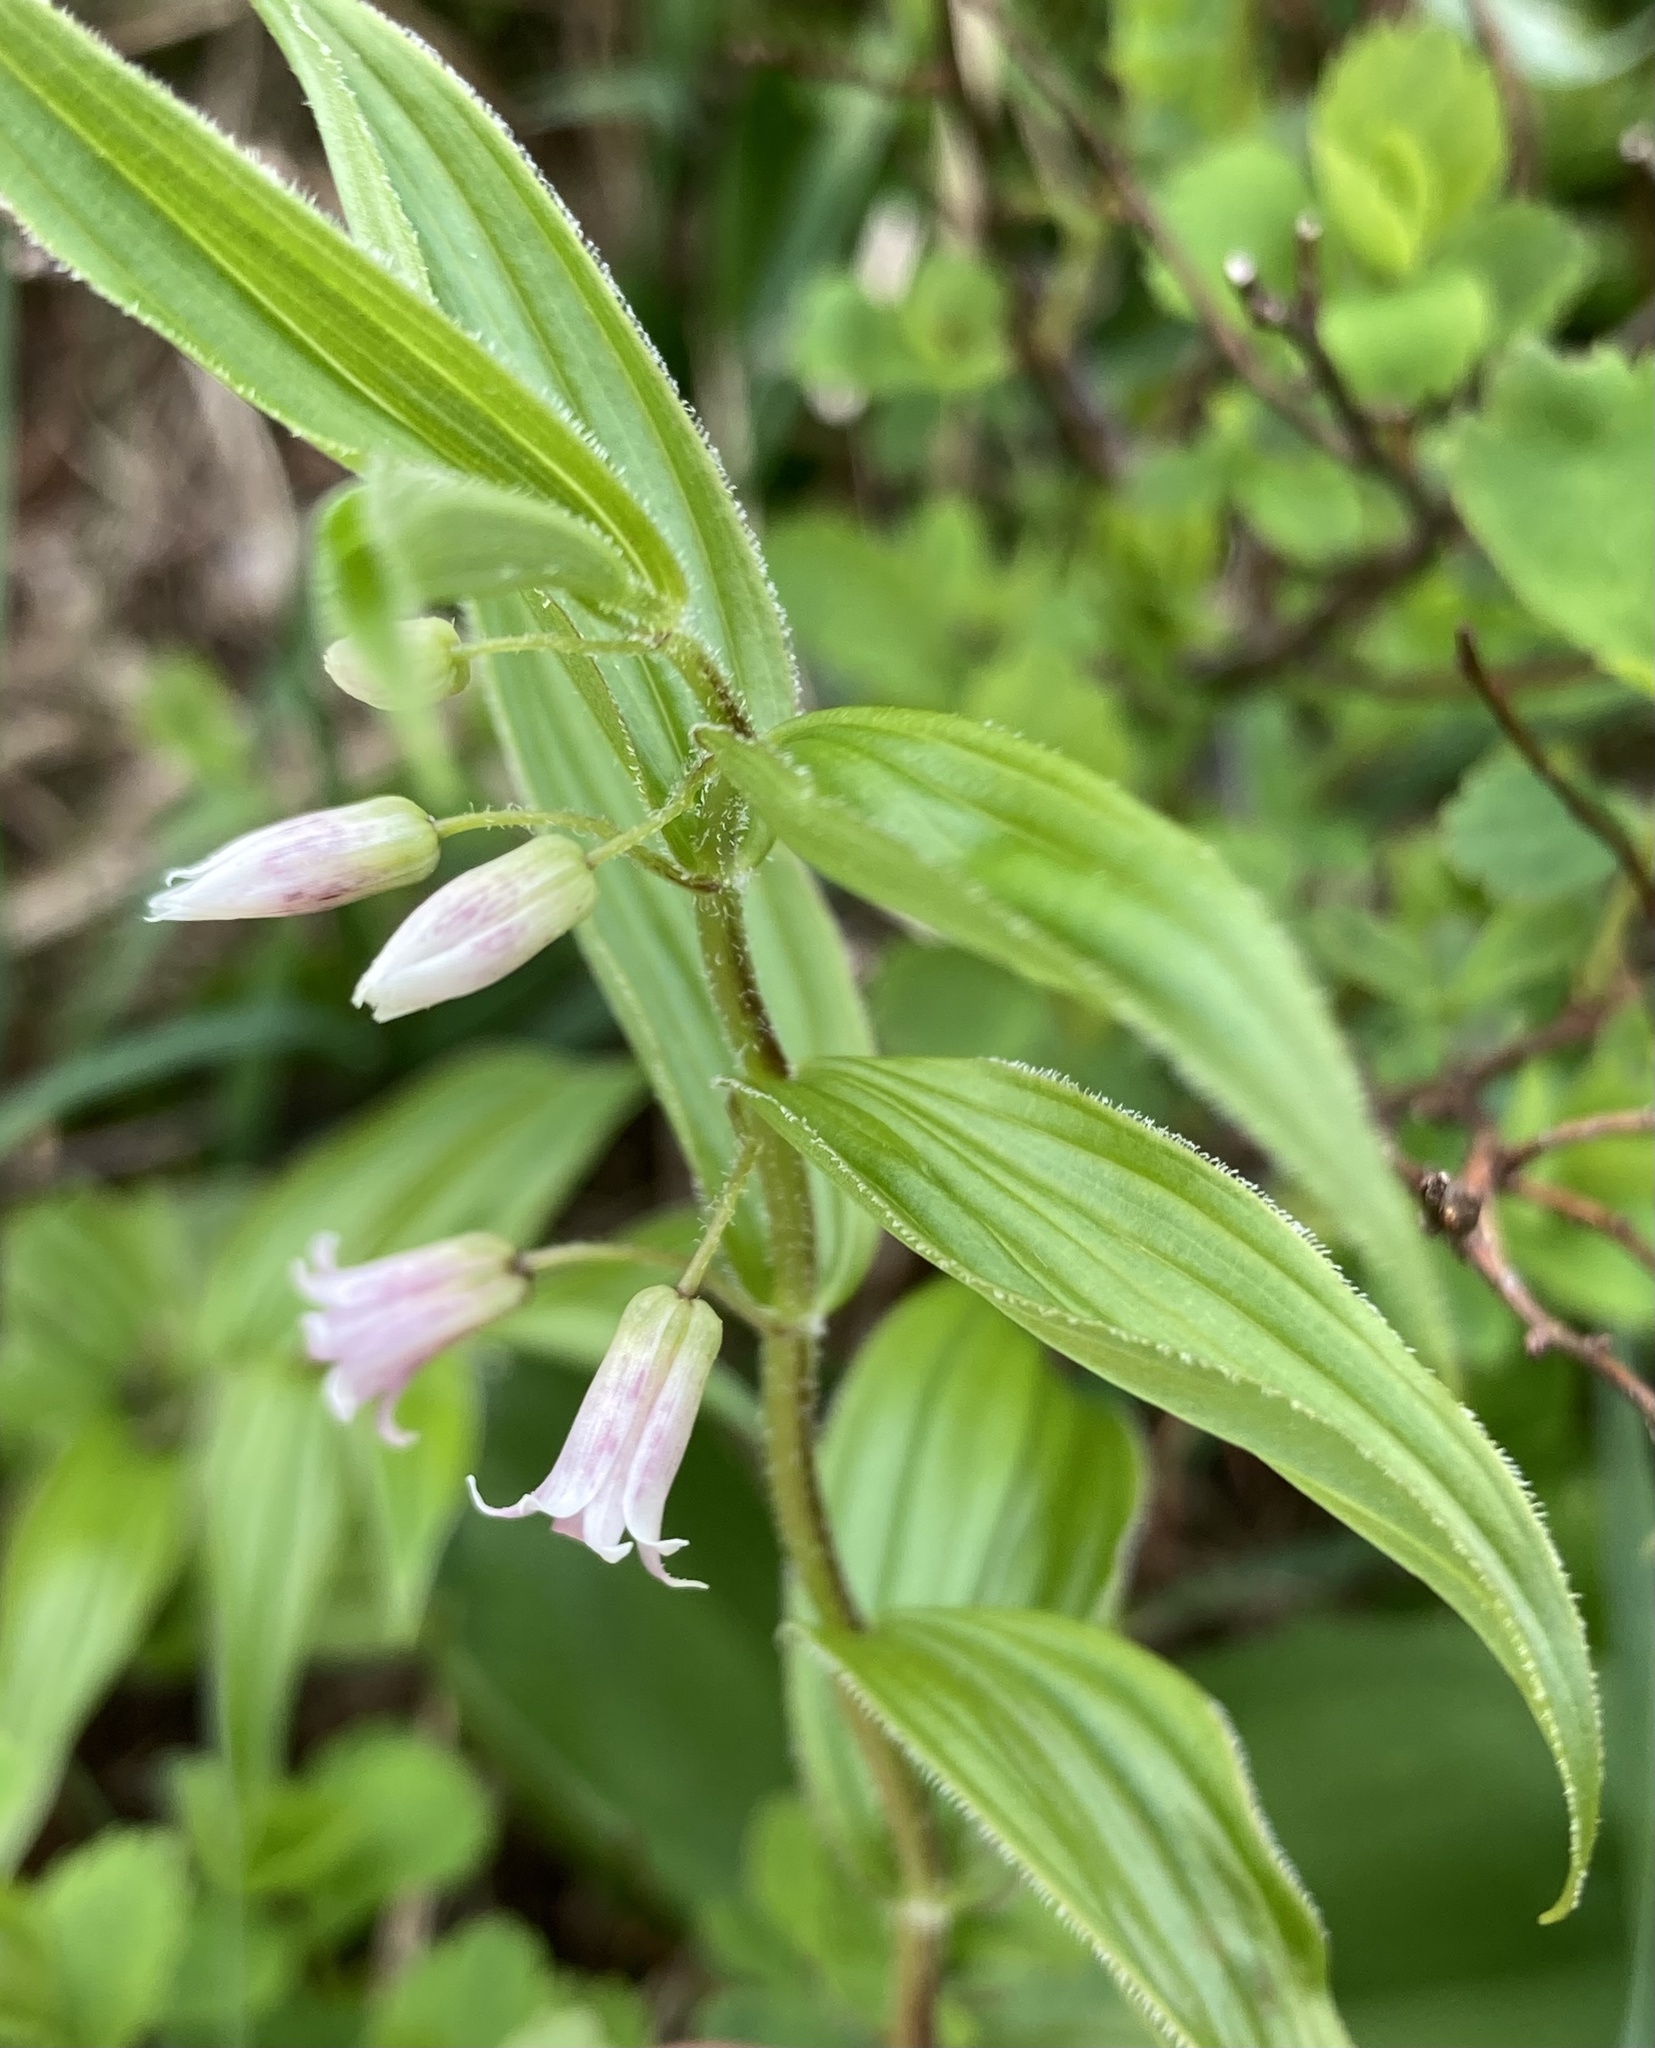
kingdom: Plantae
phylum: Tracheophyta
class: Liliopsida
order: Liliales
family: Liliaceae
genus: Streptopus
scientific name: Streptopus lanceolatus
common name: Rose mandarin
